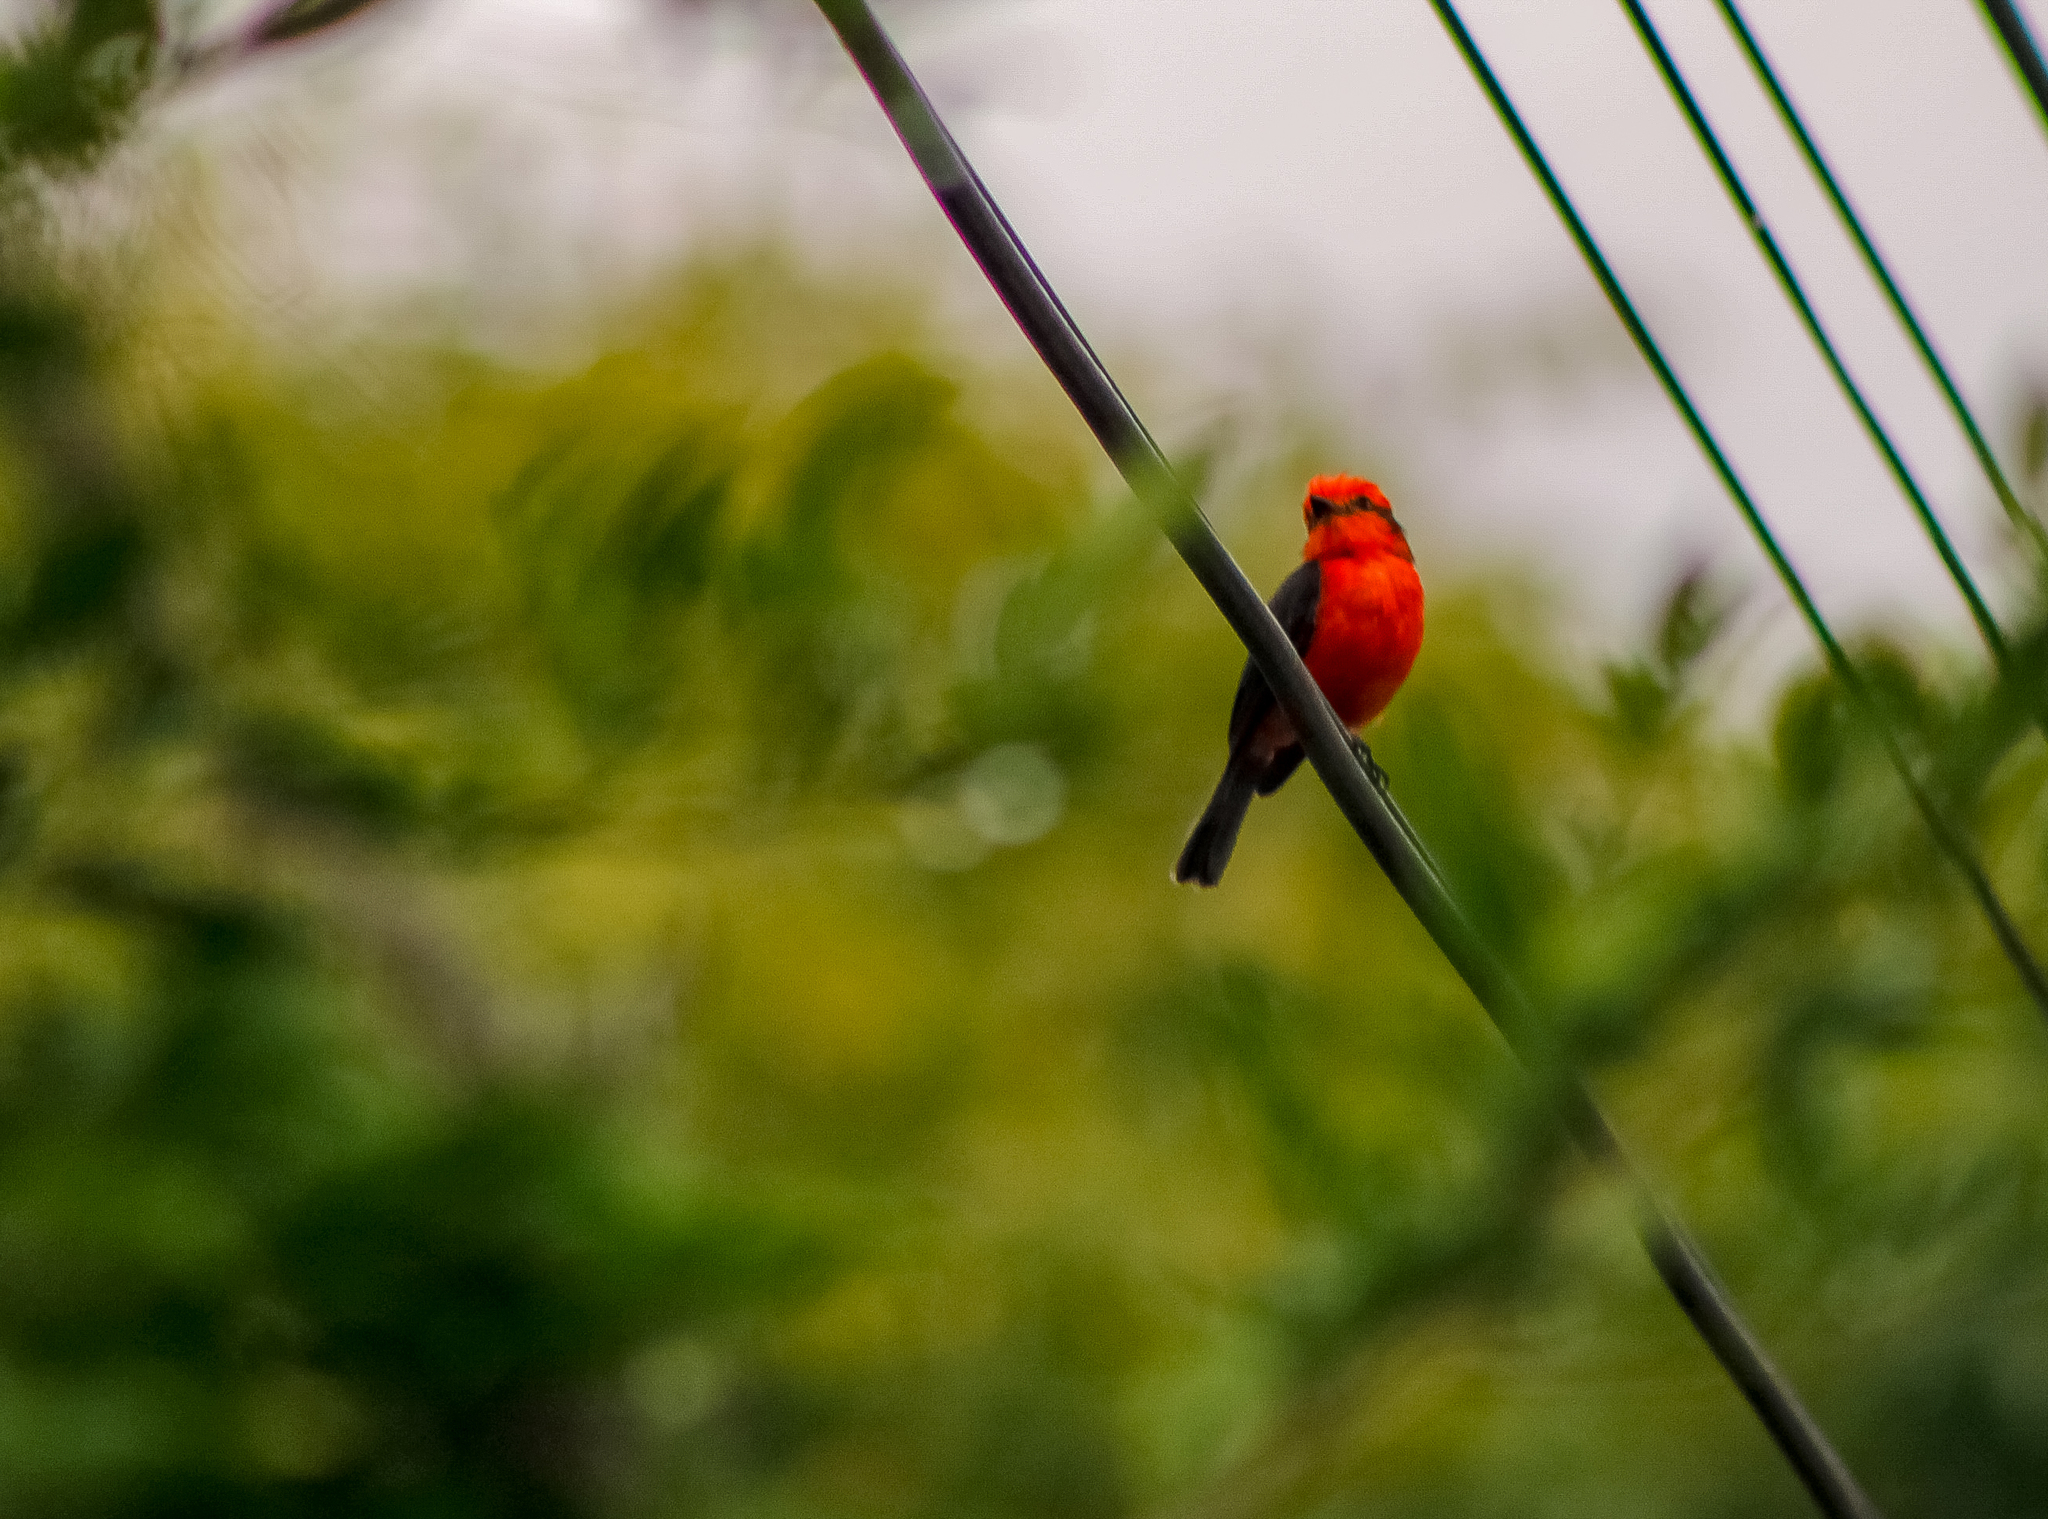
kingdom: Animalia
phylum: Chordata
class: Aves
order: Passeriformes
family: Tyrannidae
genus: Pyrocephalus
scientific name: Pyrocephalus rubinus
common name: Vermilion flycatcher
